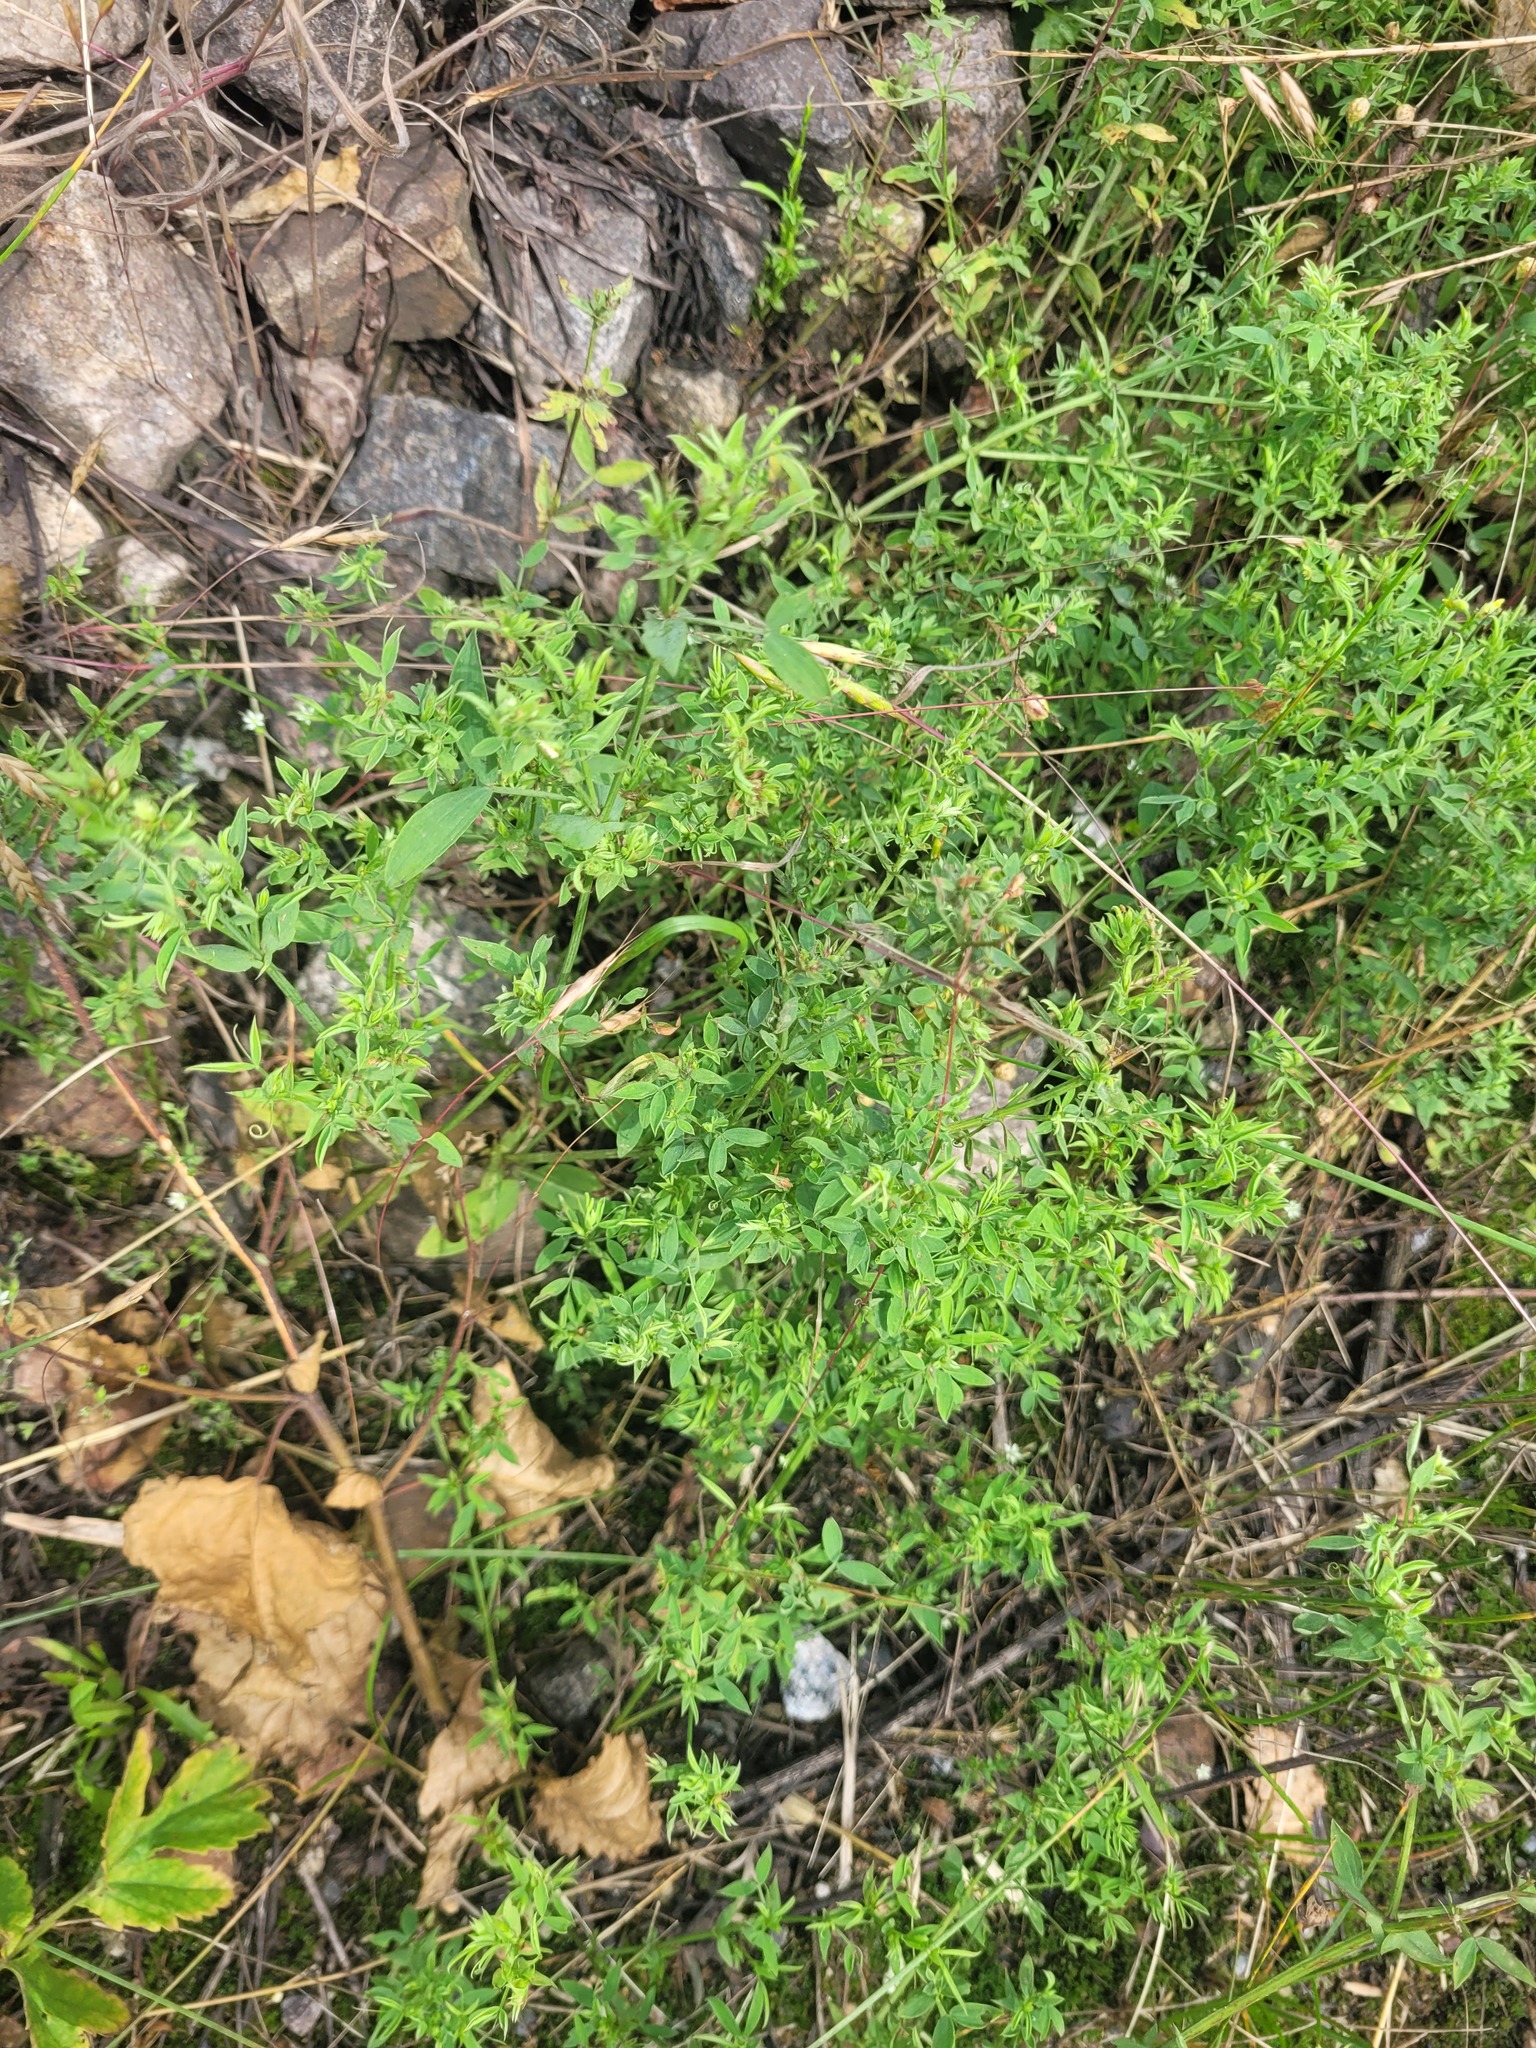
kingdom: Plantae
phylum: Tracheophyta
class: Magnoliopsida
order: Fabales
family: Fabaceae
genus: Lathyrus
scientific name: Lathyrus pratensis
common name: Meadow vetchling
